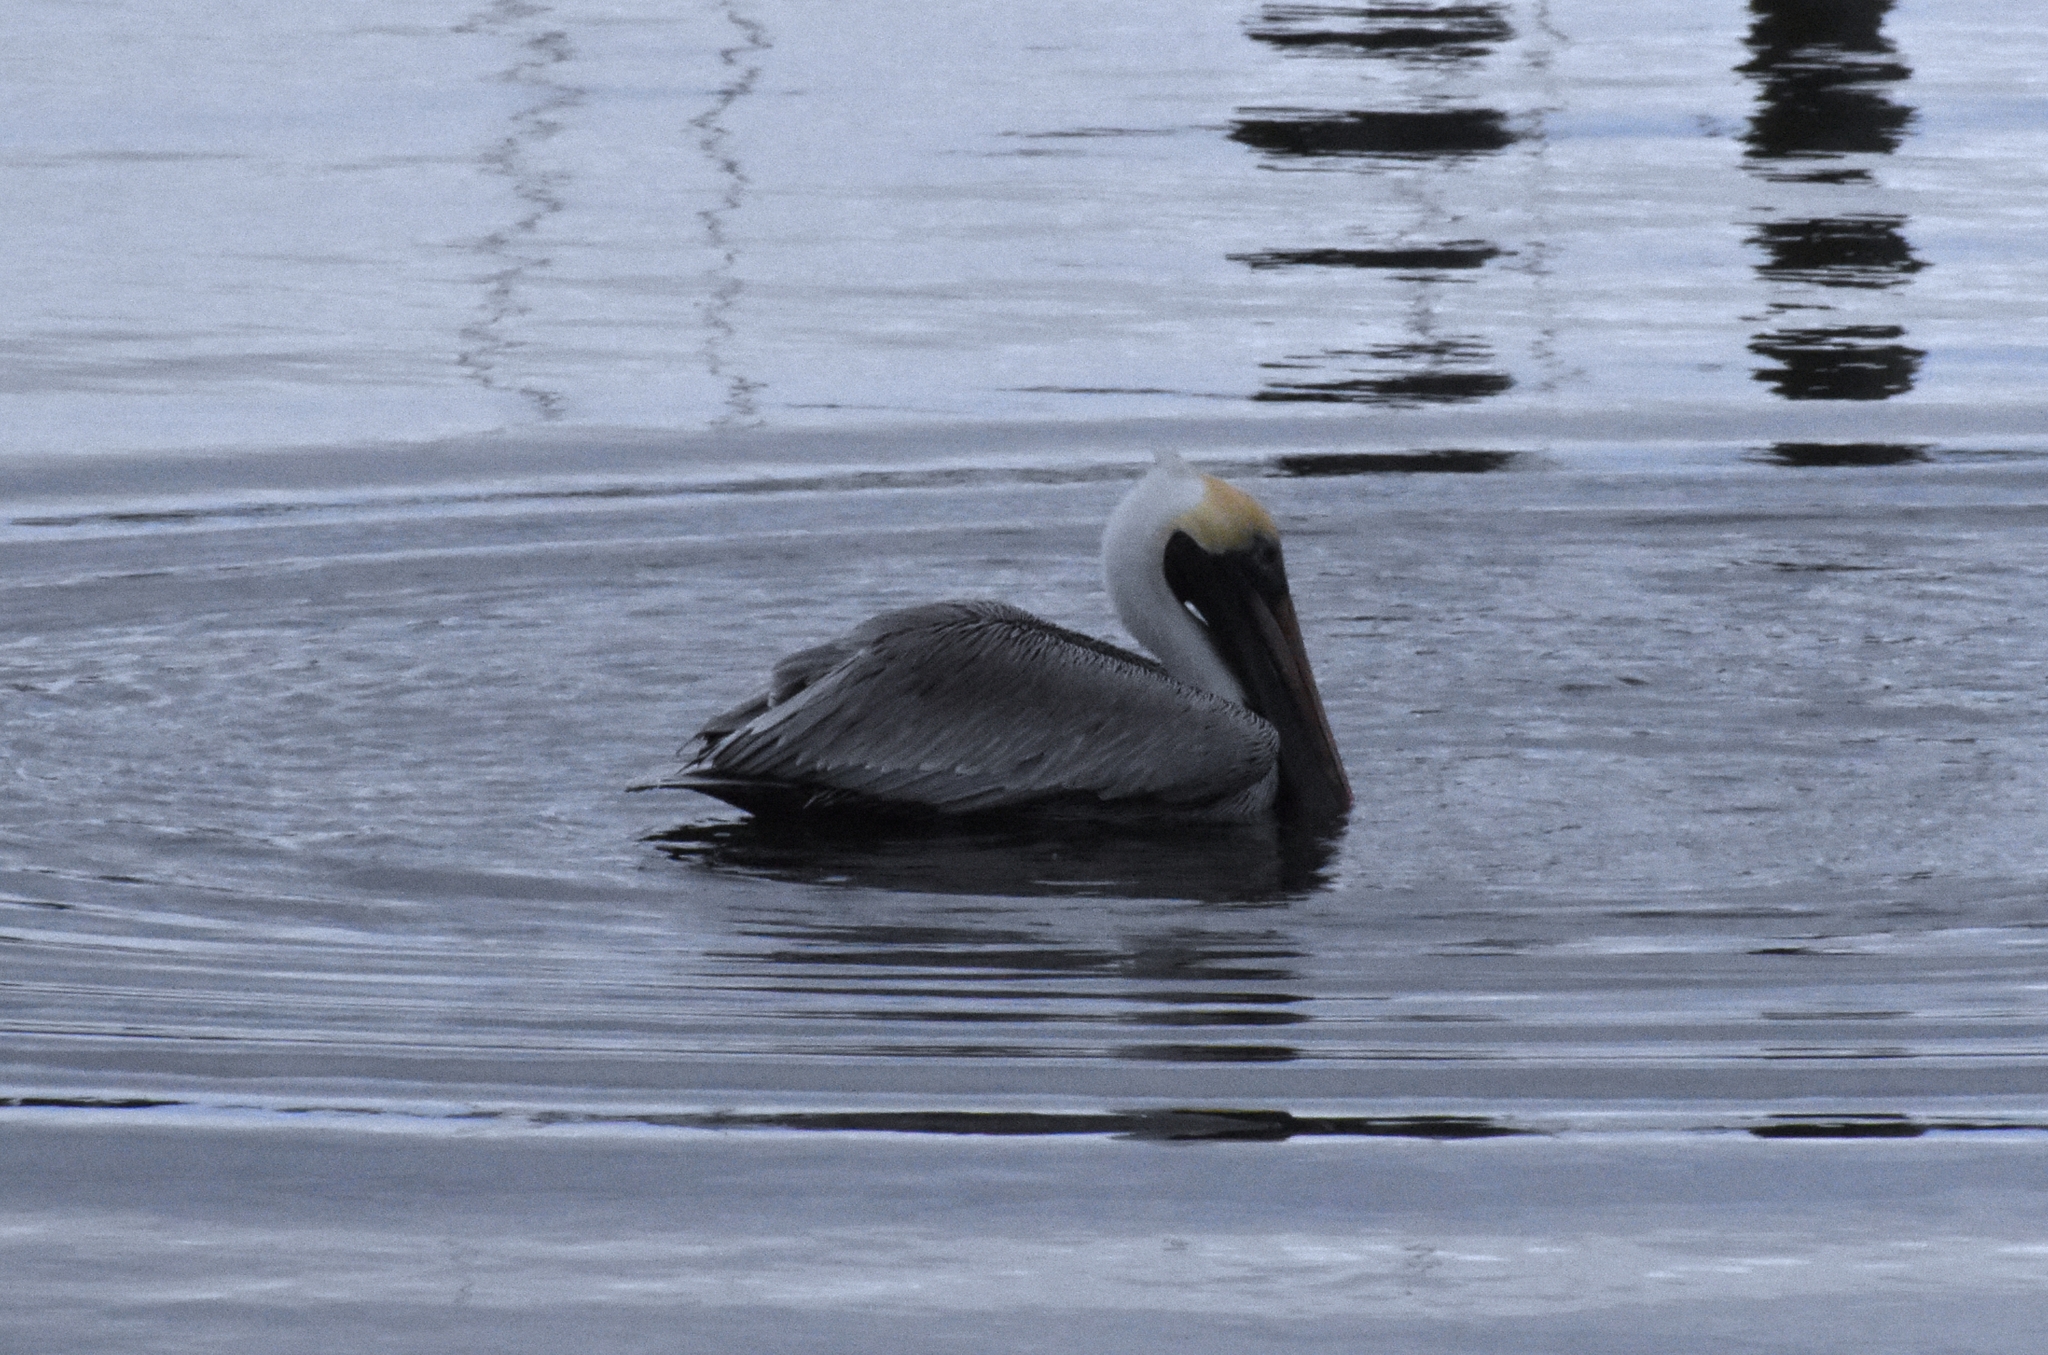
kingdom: Animalia
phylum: Chordata
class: Aves
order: Pelecaniformes
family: Pelecanidae
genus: Pelecanus
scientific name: Pelecanus occidentalis
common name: Brown pelican
